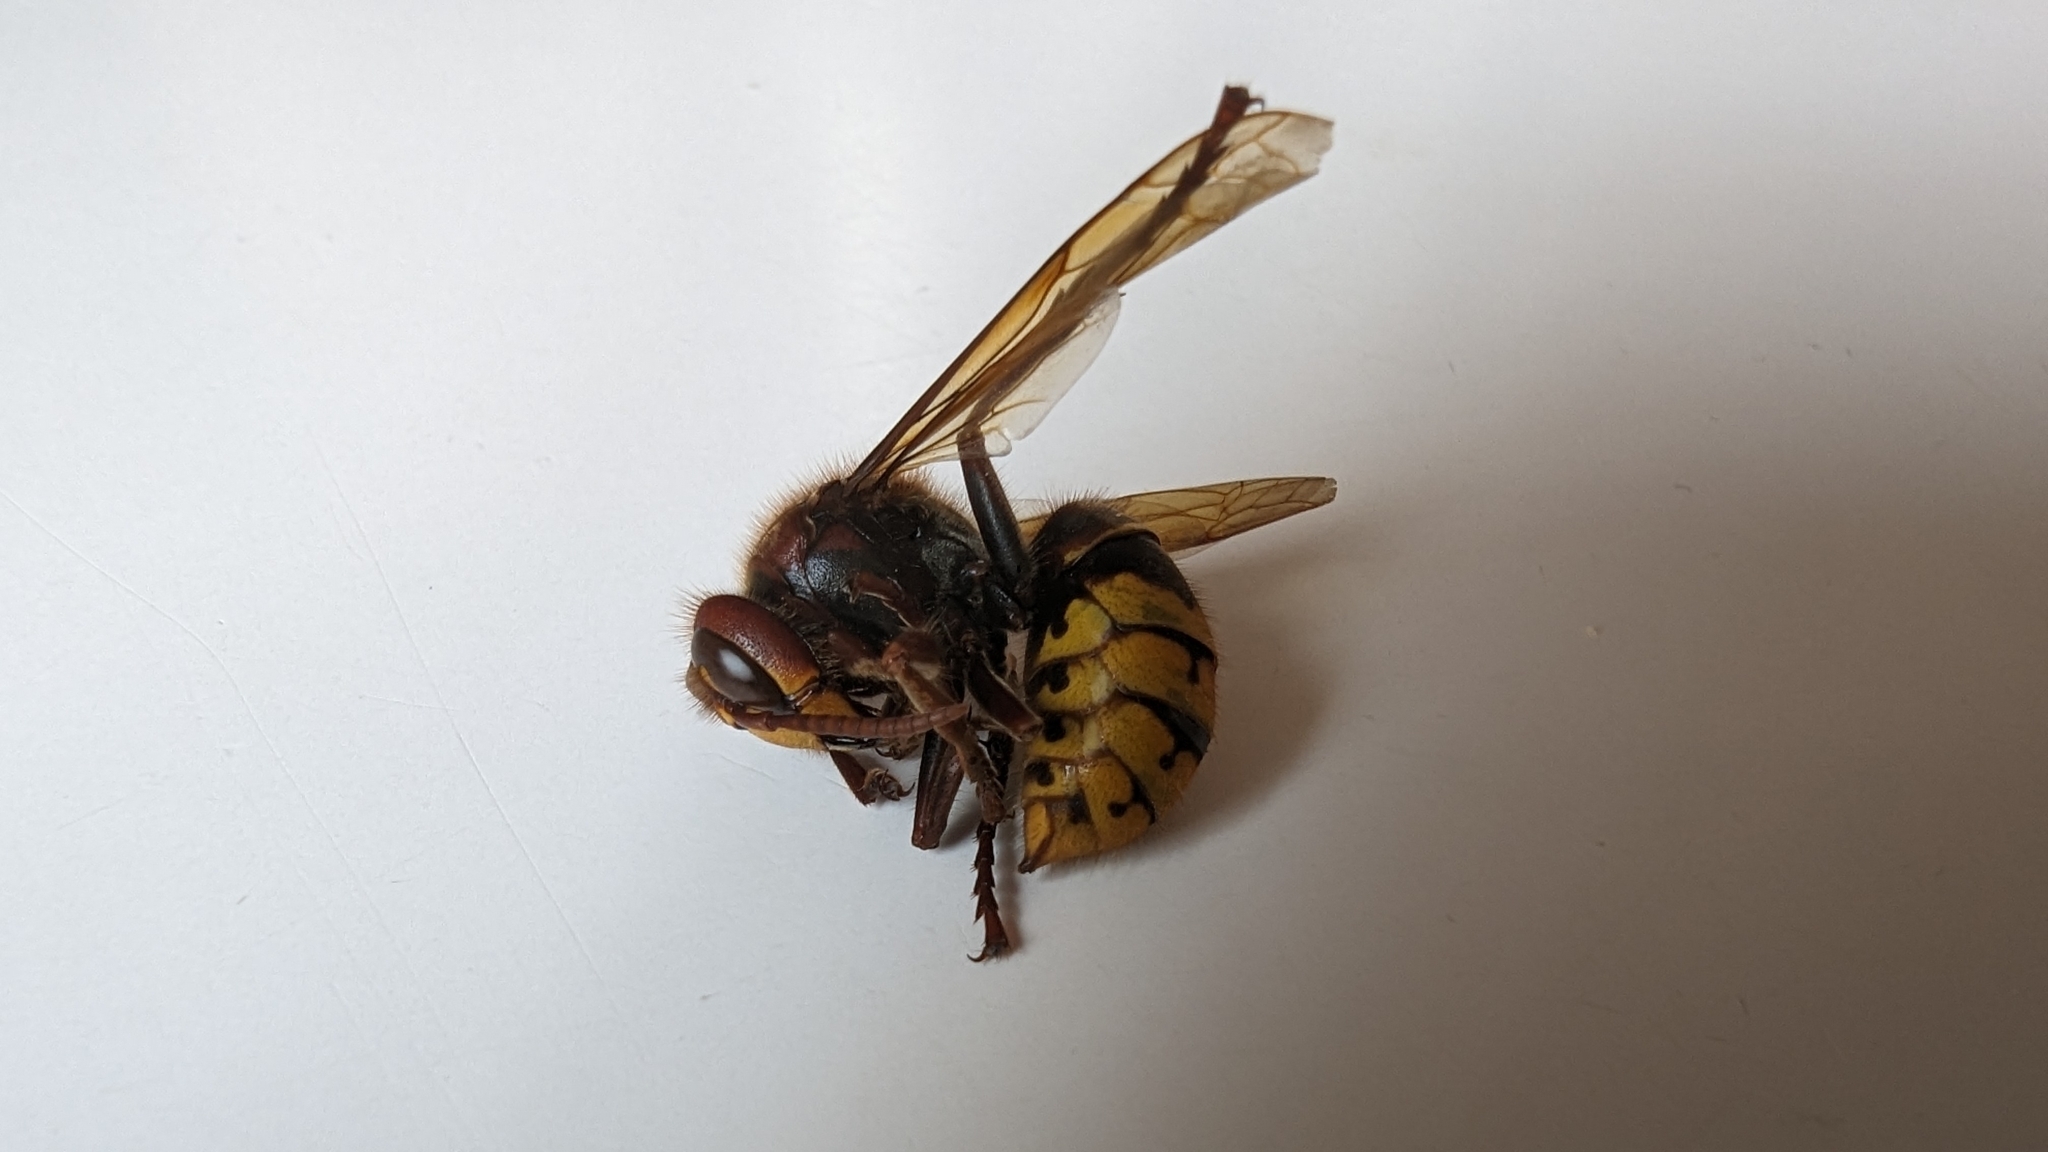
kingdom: Animalia
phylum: Arthropoda
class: Insecta
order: Hymenoptera
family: Vespidae
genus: Vespa
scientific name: Vespa crabro
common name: Hornet
